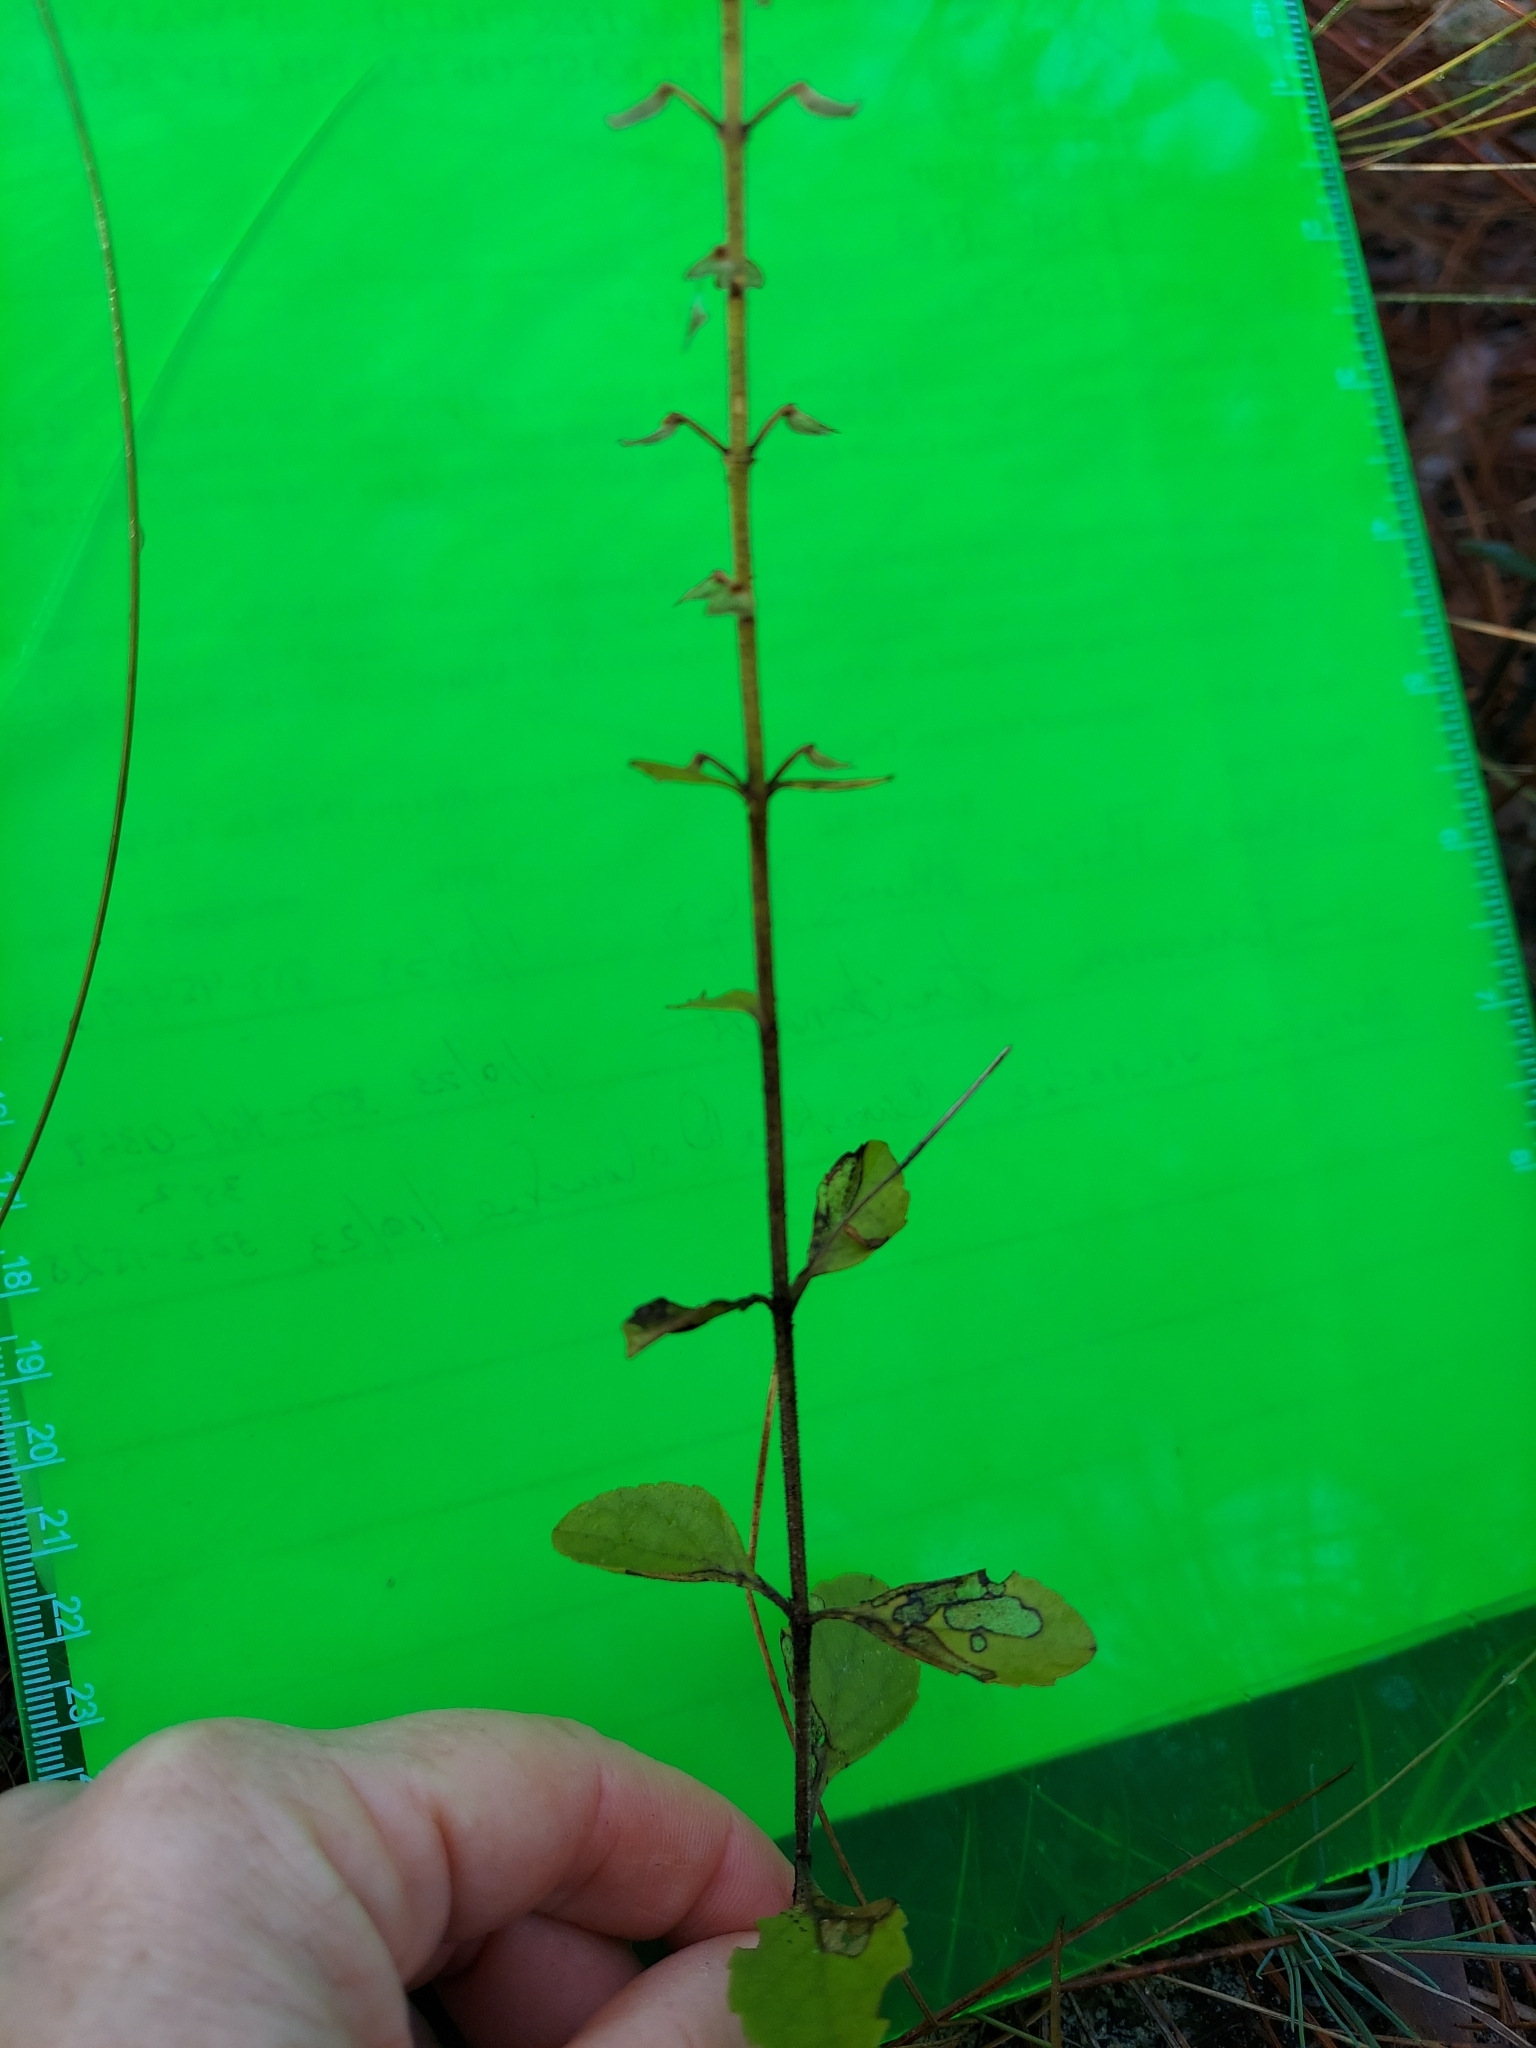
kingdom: Plantae
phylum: Tracheophyta
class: Magnoliopsida
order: Lamiales
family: Lamiaceae
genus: Scutellaria
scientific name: Scutellaria arenicola
